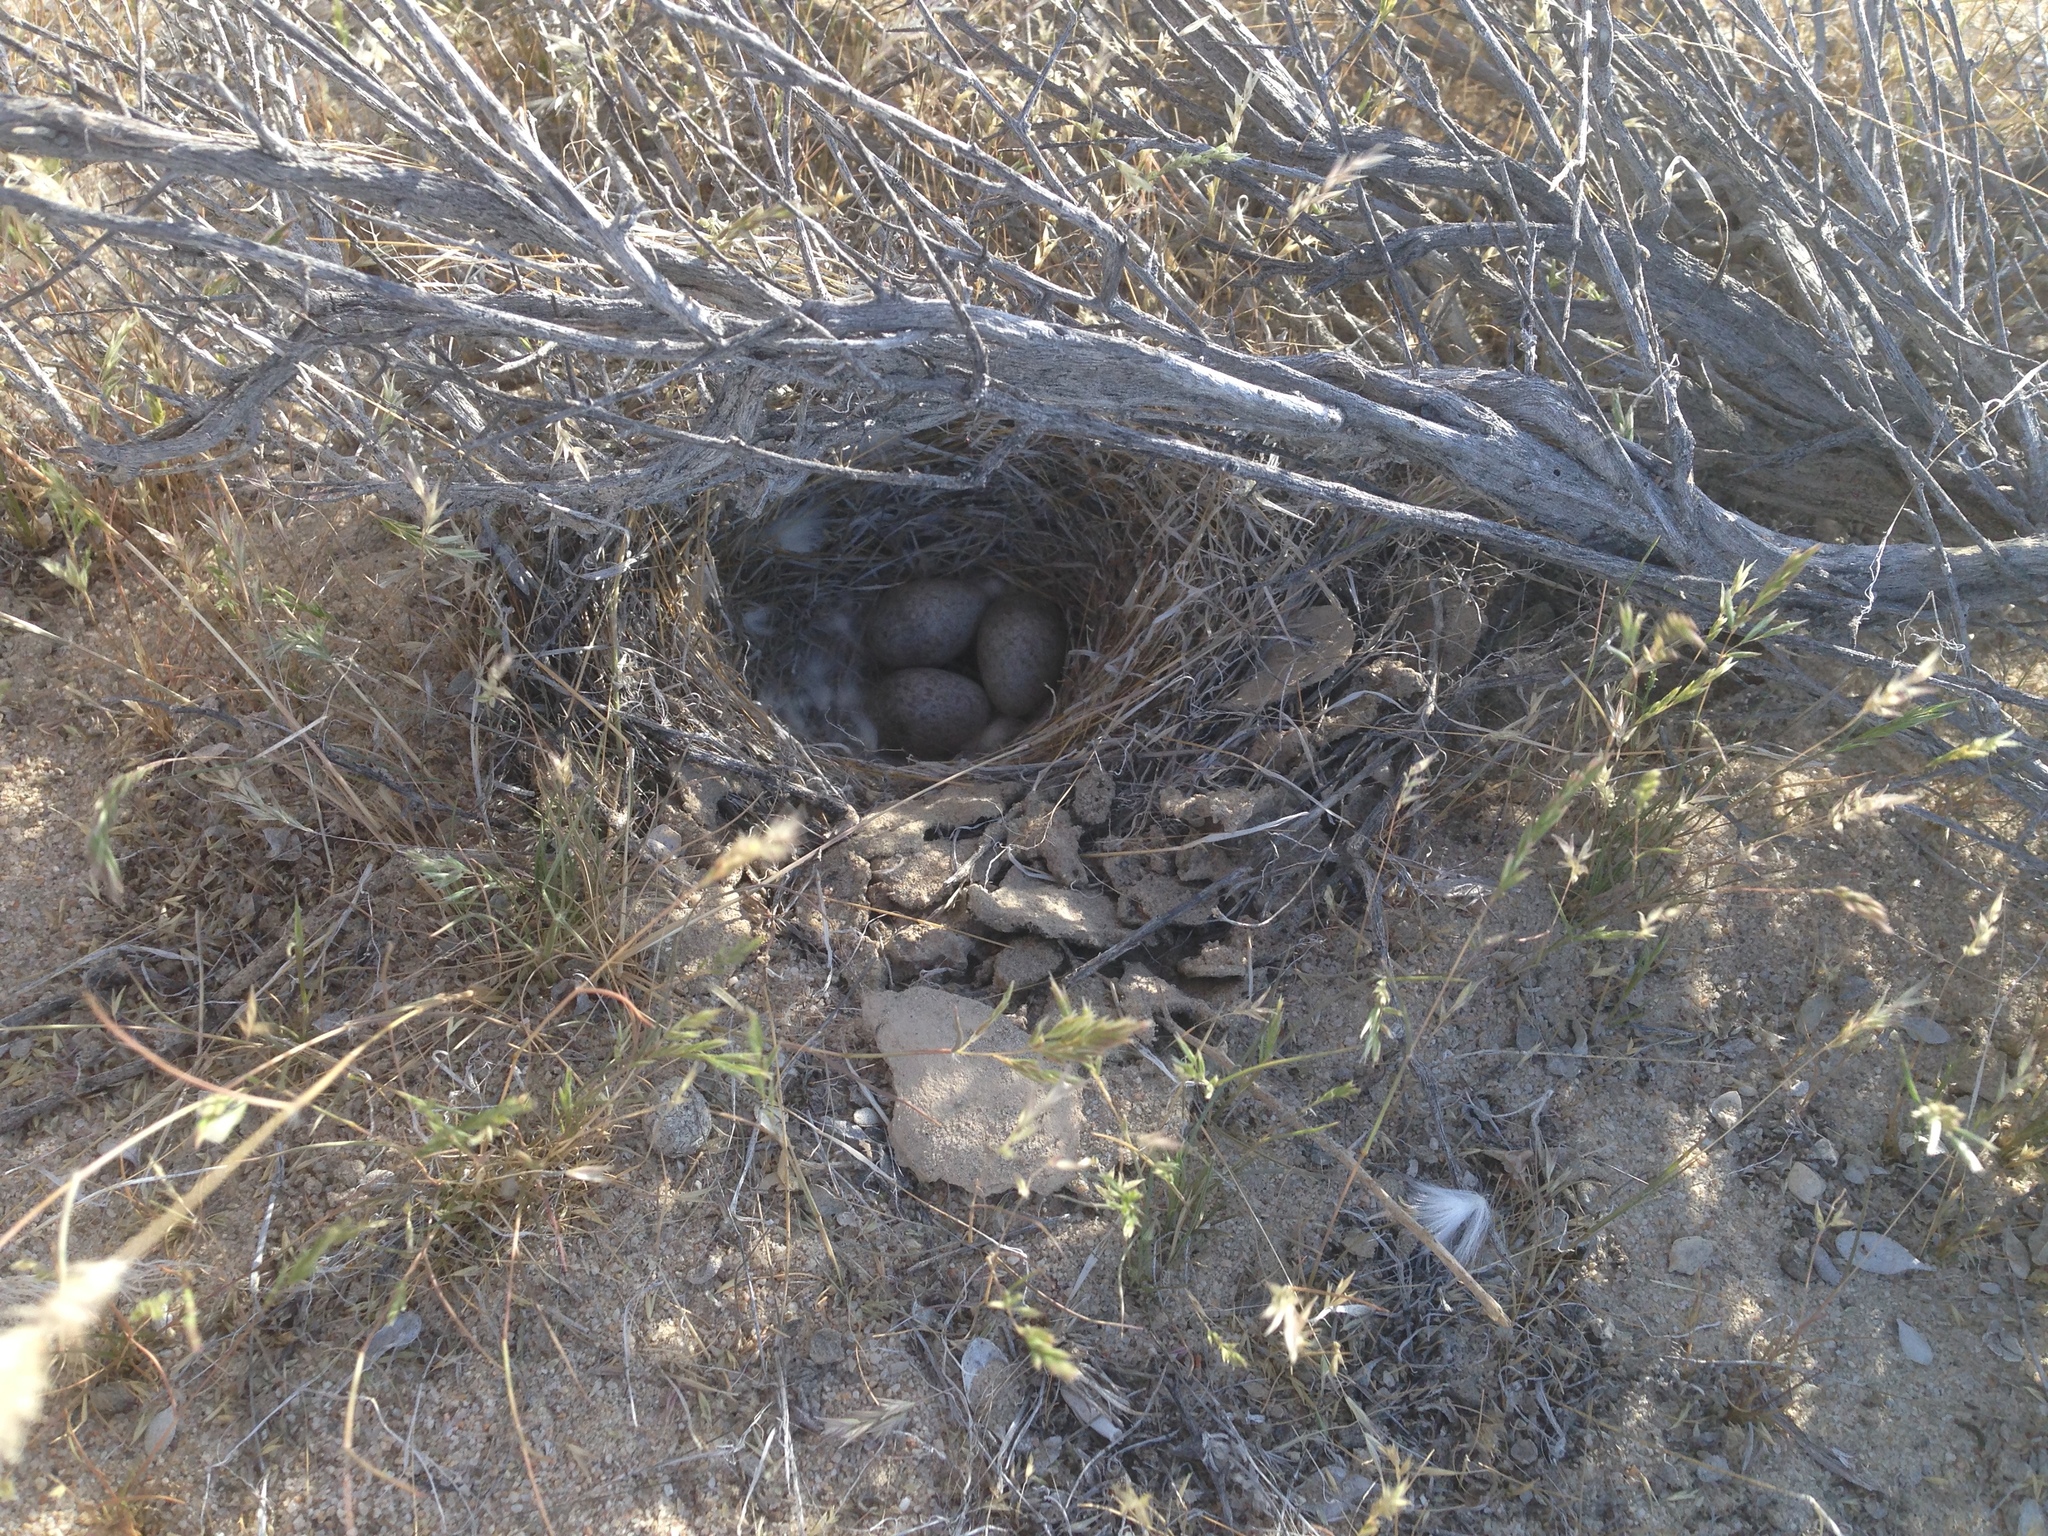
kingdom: Animalia
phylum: Chordata
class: Aves
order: Passeriformes
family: Alaudidae
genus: Eremophila
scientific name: Eremophila alpestris
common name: Horned lark
